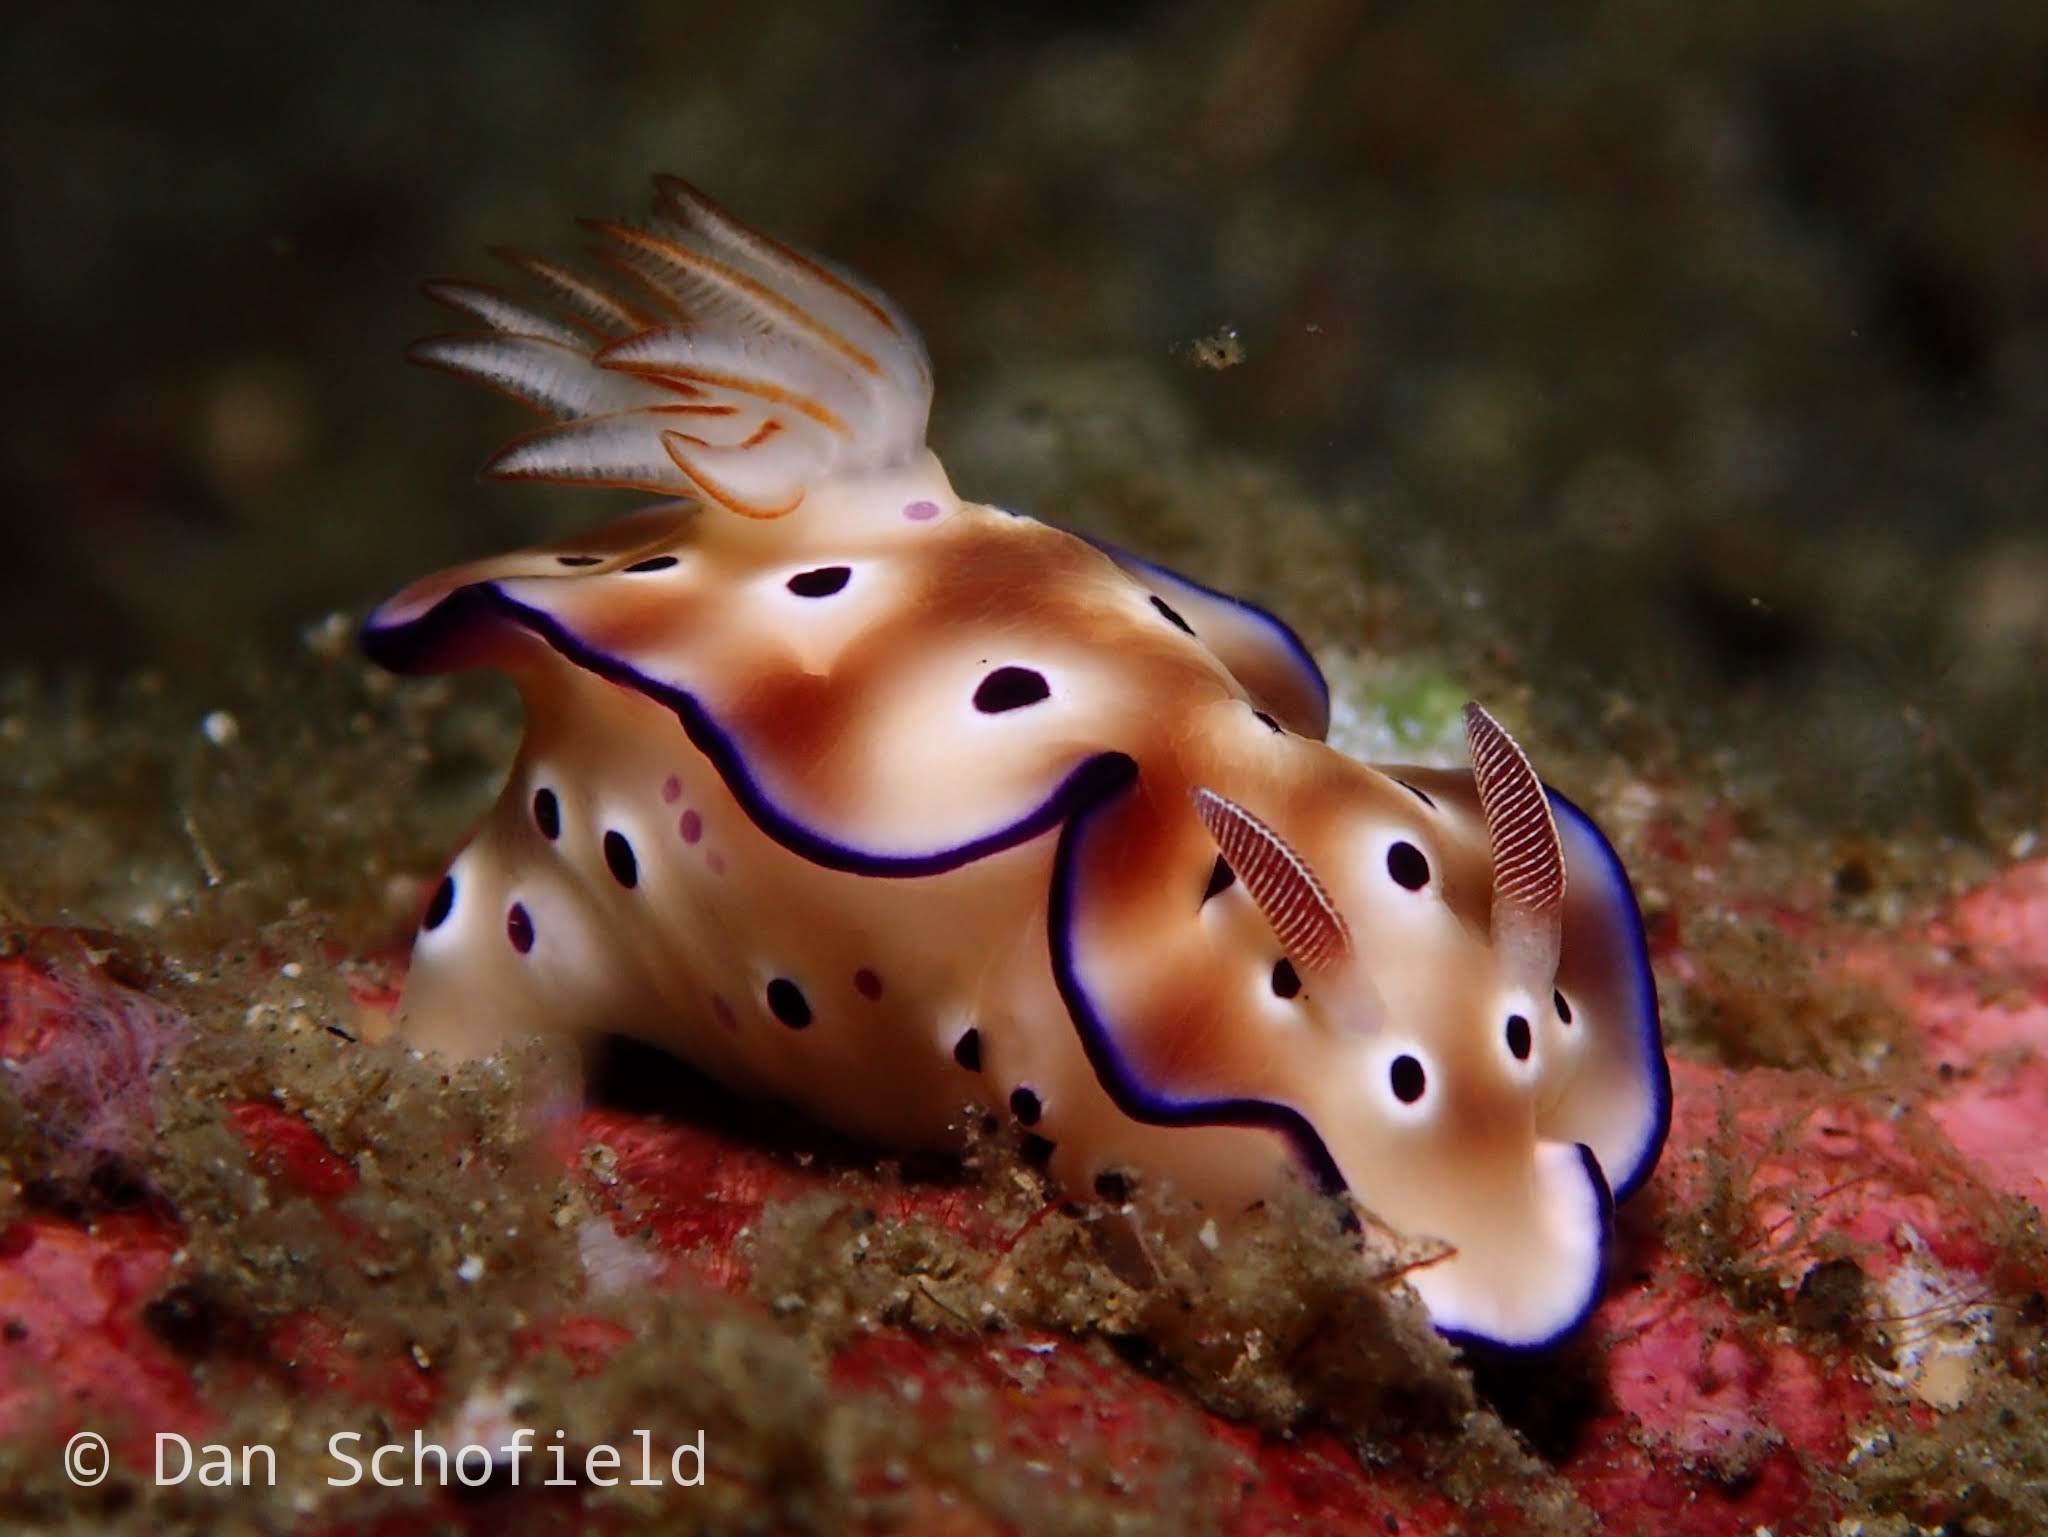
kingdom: Animalia
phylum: Mollusca
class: Gastropoda
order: Nudibranchia
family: Chromodorididae
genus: Hypselodoris
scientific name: Hypselodoris tryoni
